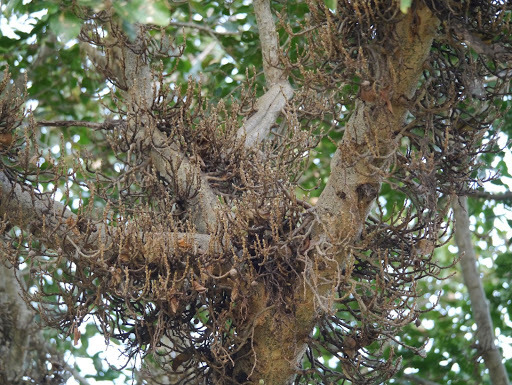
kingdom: Plantae
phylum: Tracheophyta
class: Magnoliopsida
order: Rosales
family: Moraceae
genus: Ficus
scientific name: Ficus sycomorus
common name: Sycomore
